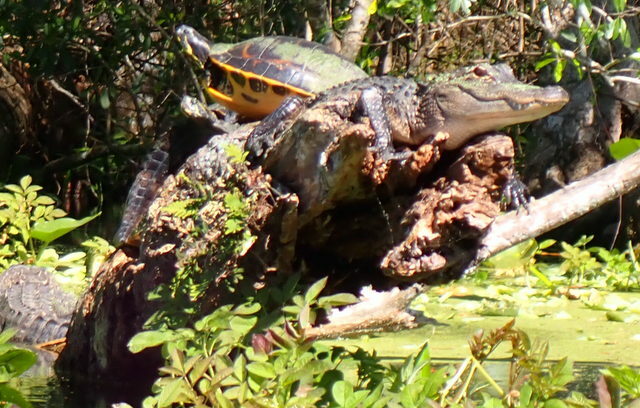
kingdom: Animalia
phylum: Chordata
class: Crocodylia
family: Alligatoridae
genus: Alligator
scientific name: Alligator mississippiensis
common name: American alligator
